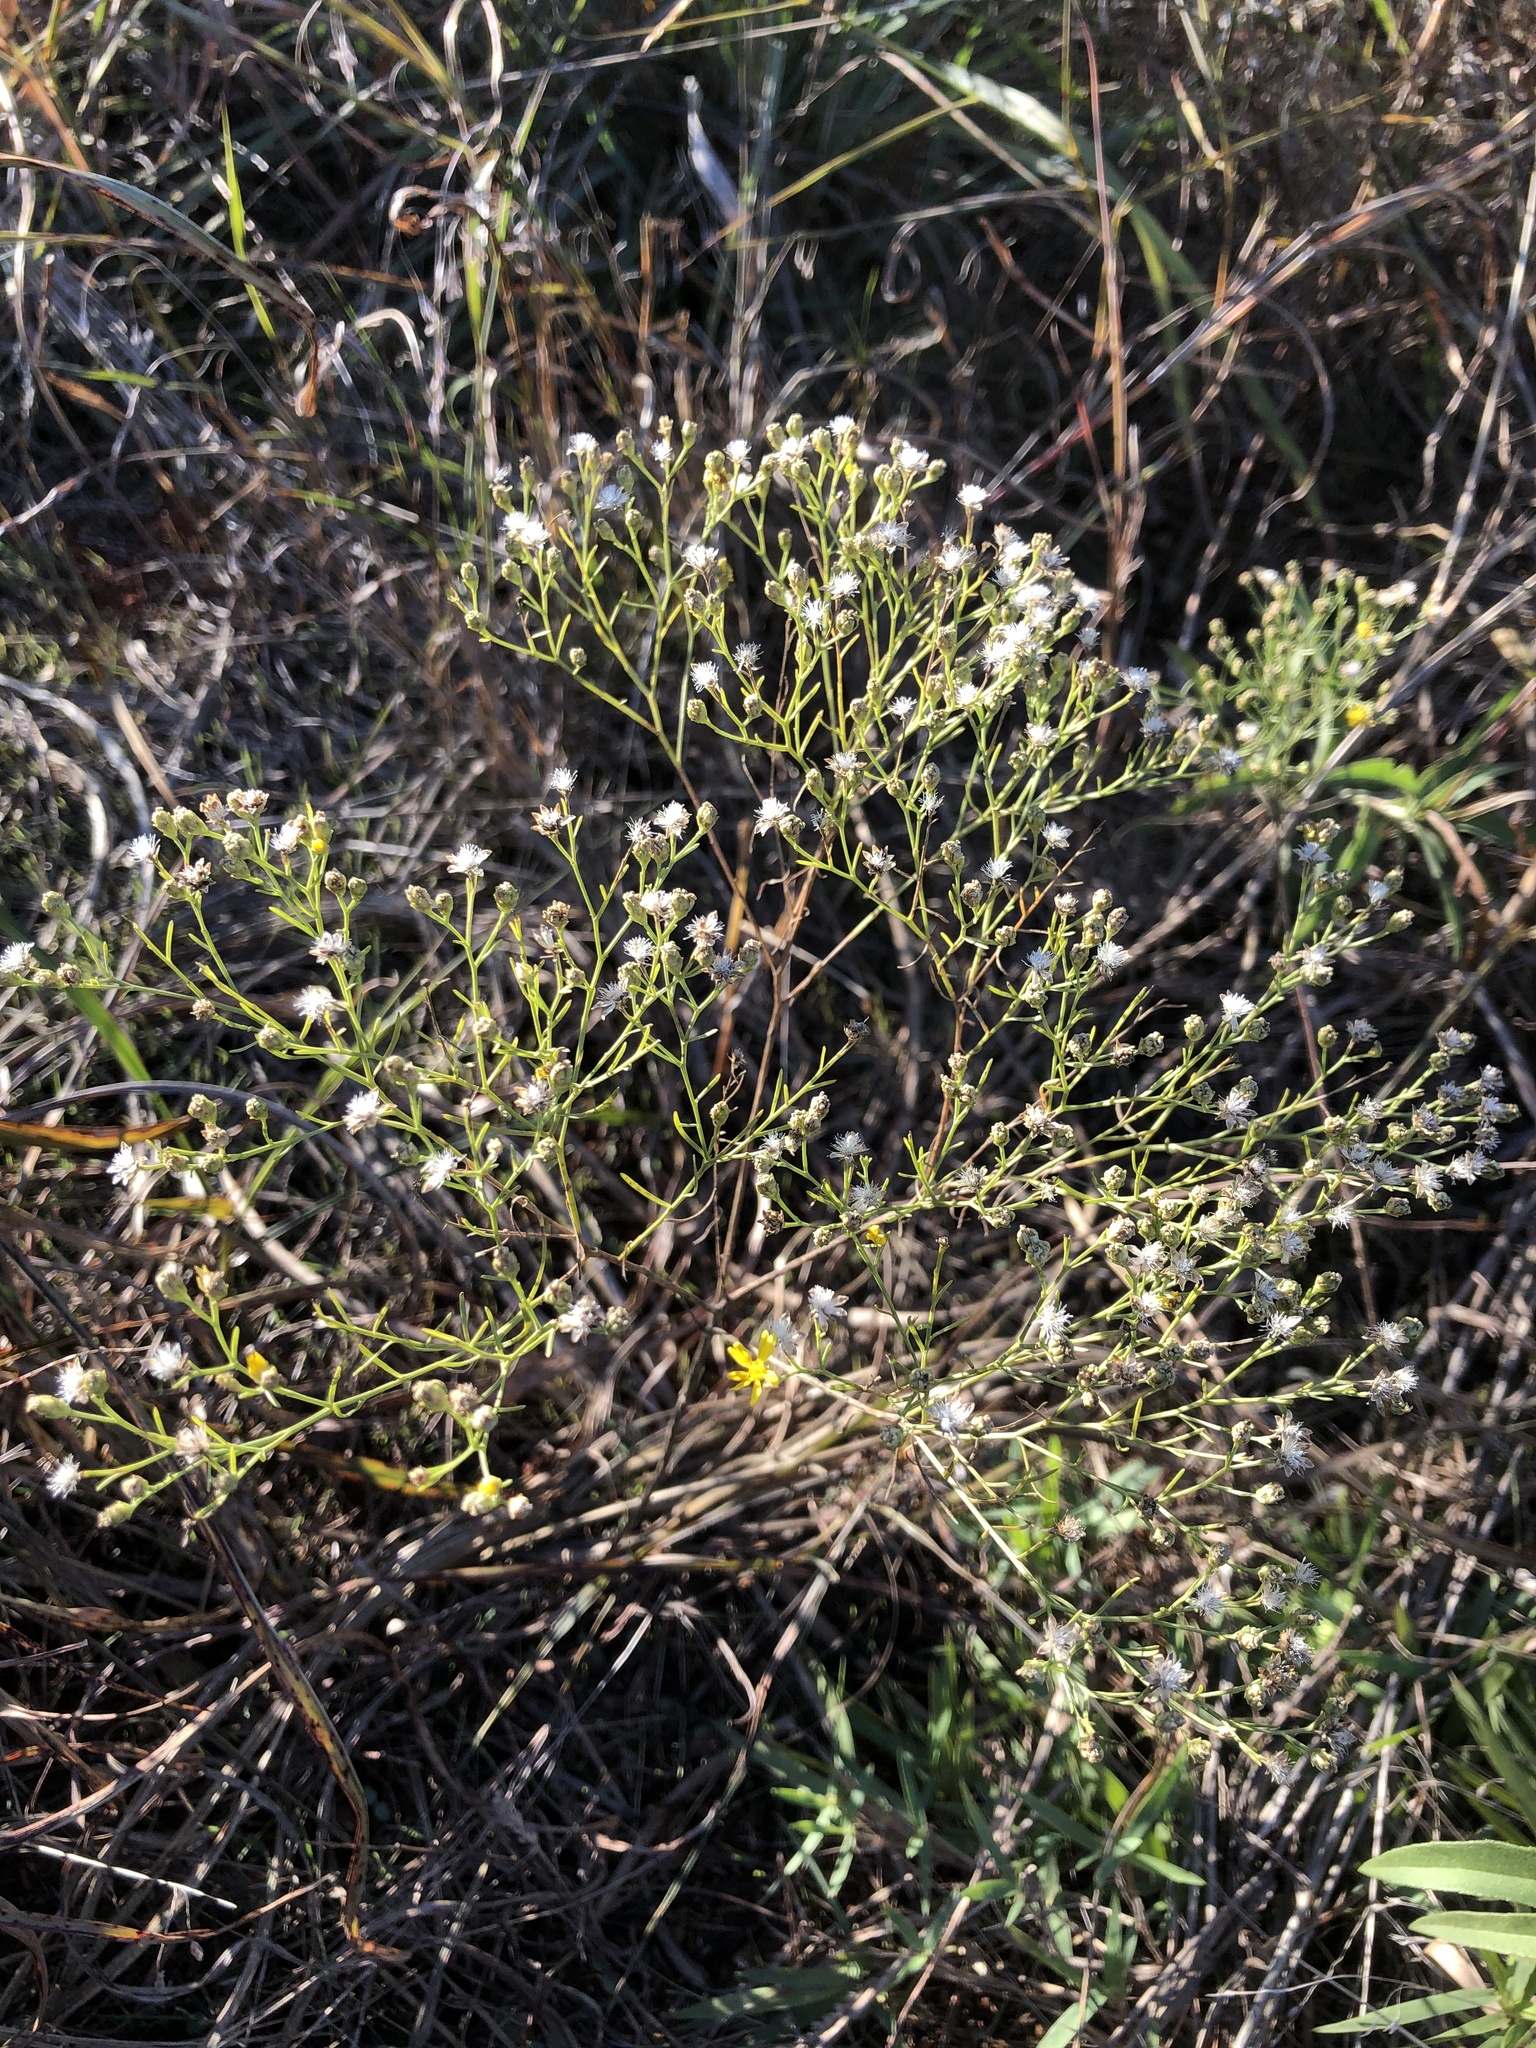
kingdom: Plantae
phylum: Tracheophyta
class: Magnoliopsida
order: Asterales
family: Asteraceae
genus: Amphiachyris
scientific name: Amphiachyris dracunculoides
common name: Broomweed
